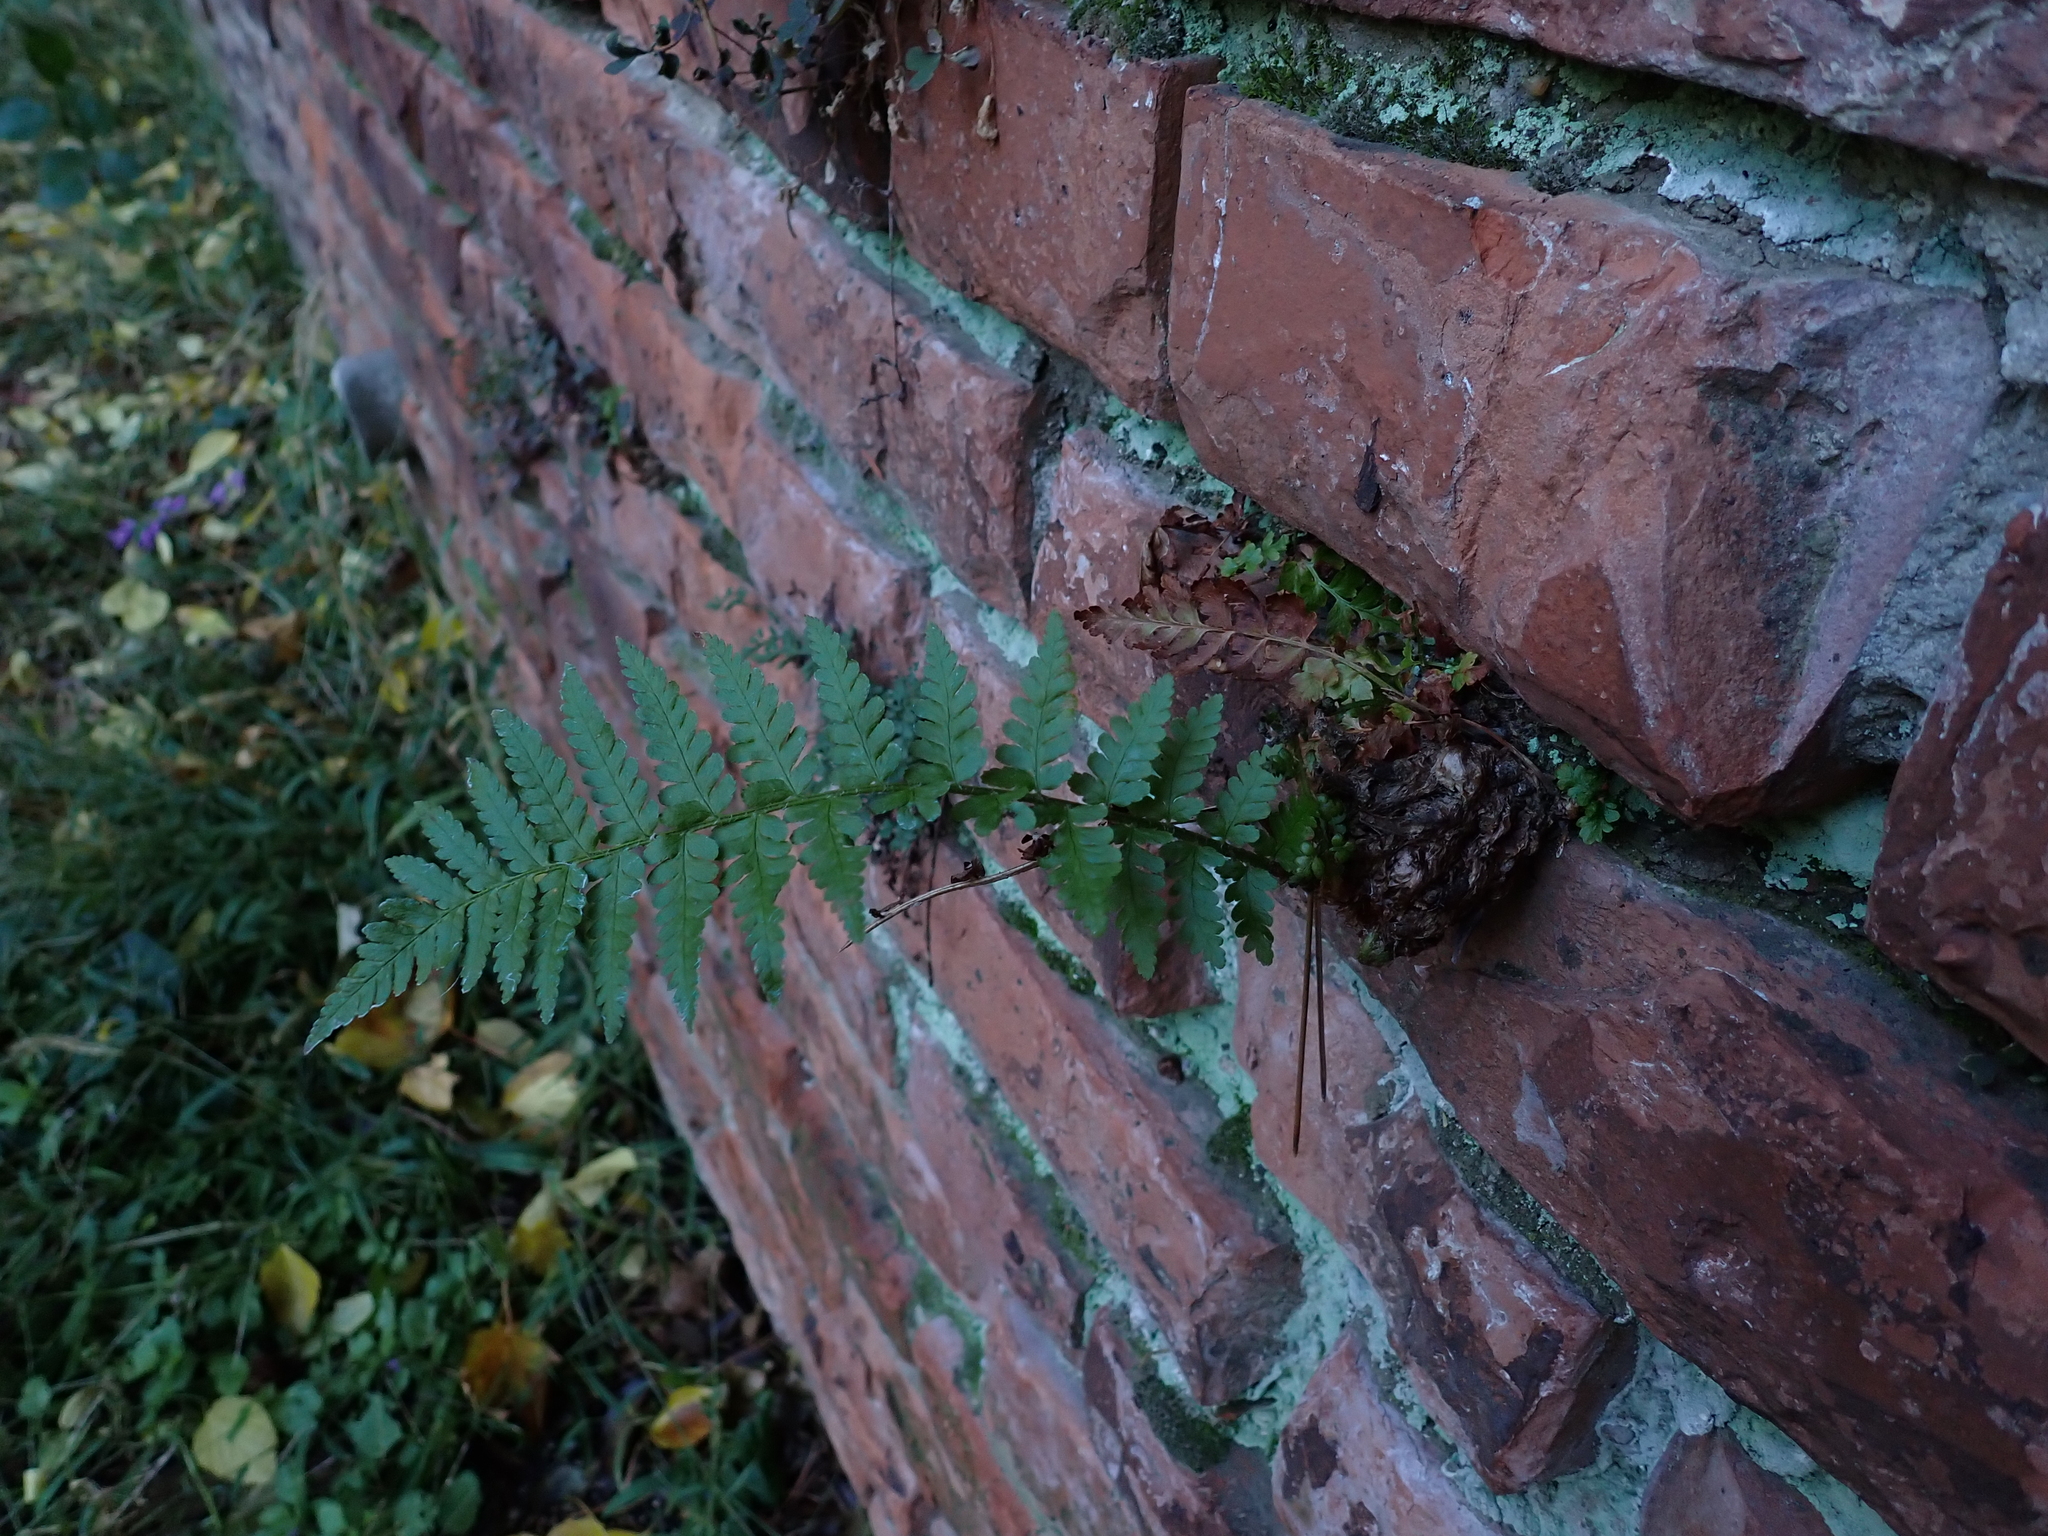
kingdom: Plantae
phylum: Tracheophyta
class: Polypodiopsida
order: Polypodiales
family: Dryopteridaceae
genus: Dryopteris
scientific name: Dryopteris filix-mas
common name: Male fern
